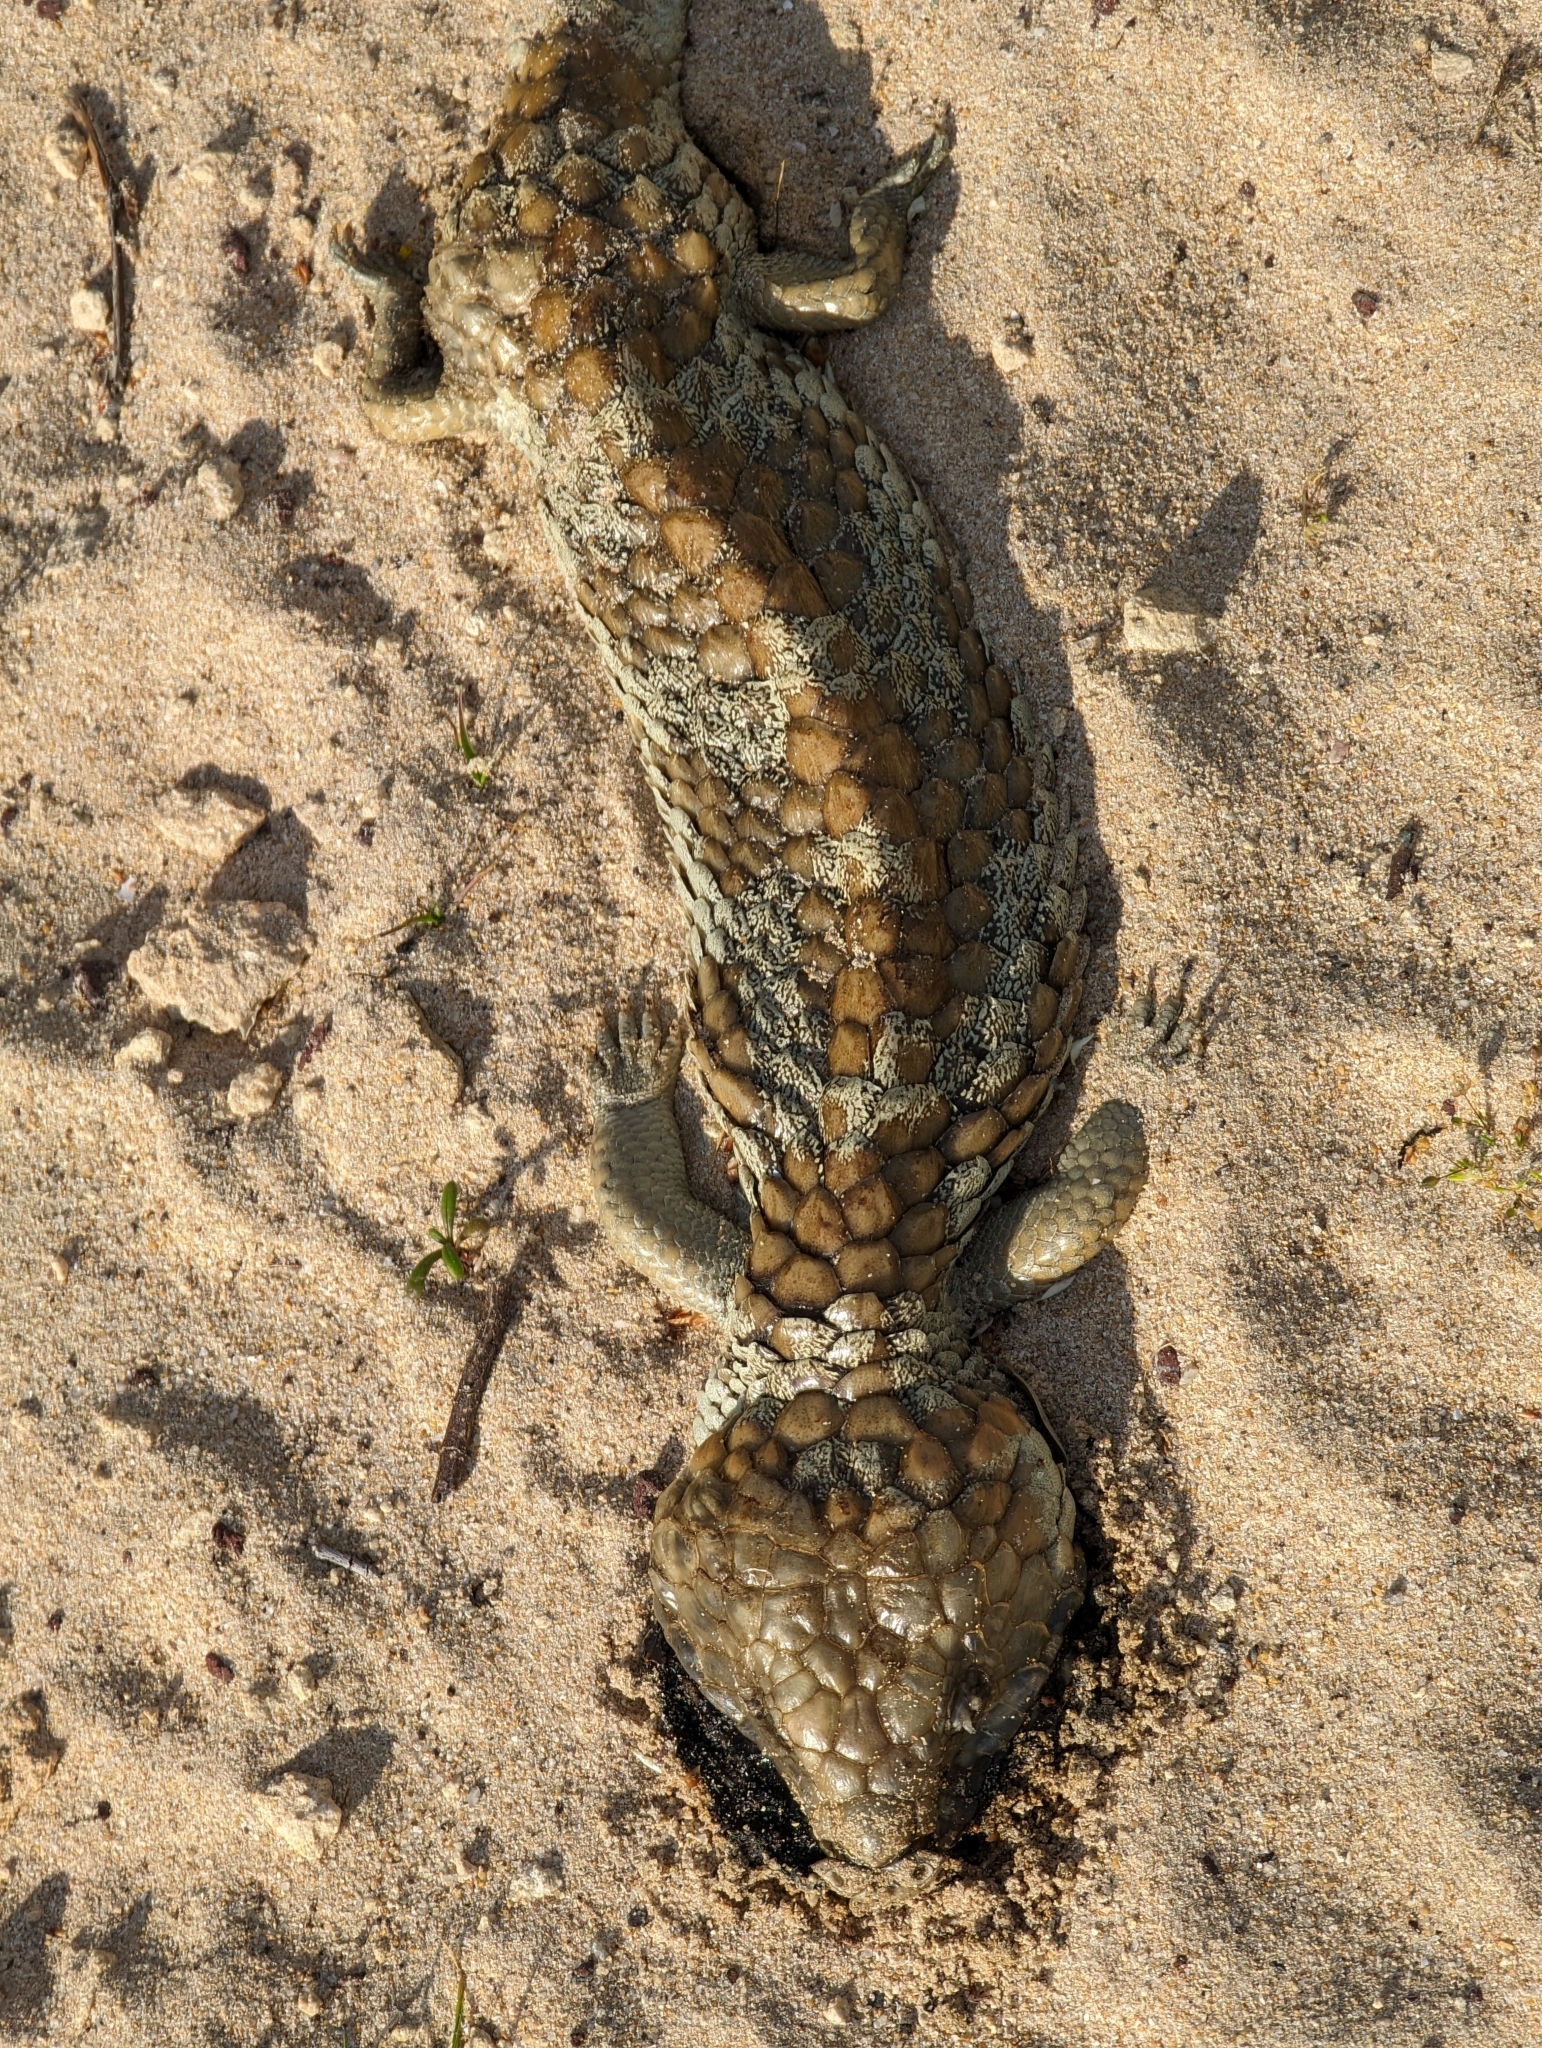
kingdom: Animalia
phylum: Chordata
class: Squamata
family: Scincidae
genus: Tiliqua
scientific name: Tiliqua rugosa
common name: Pinecone lizard
